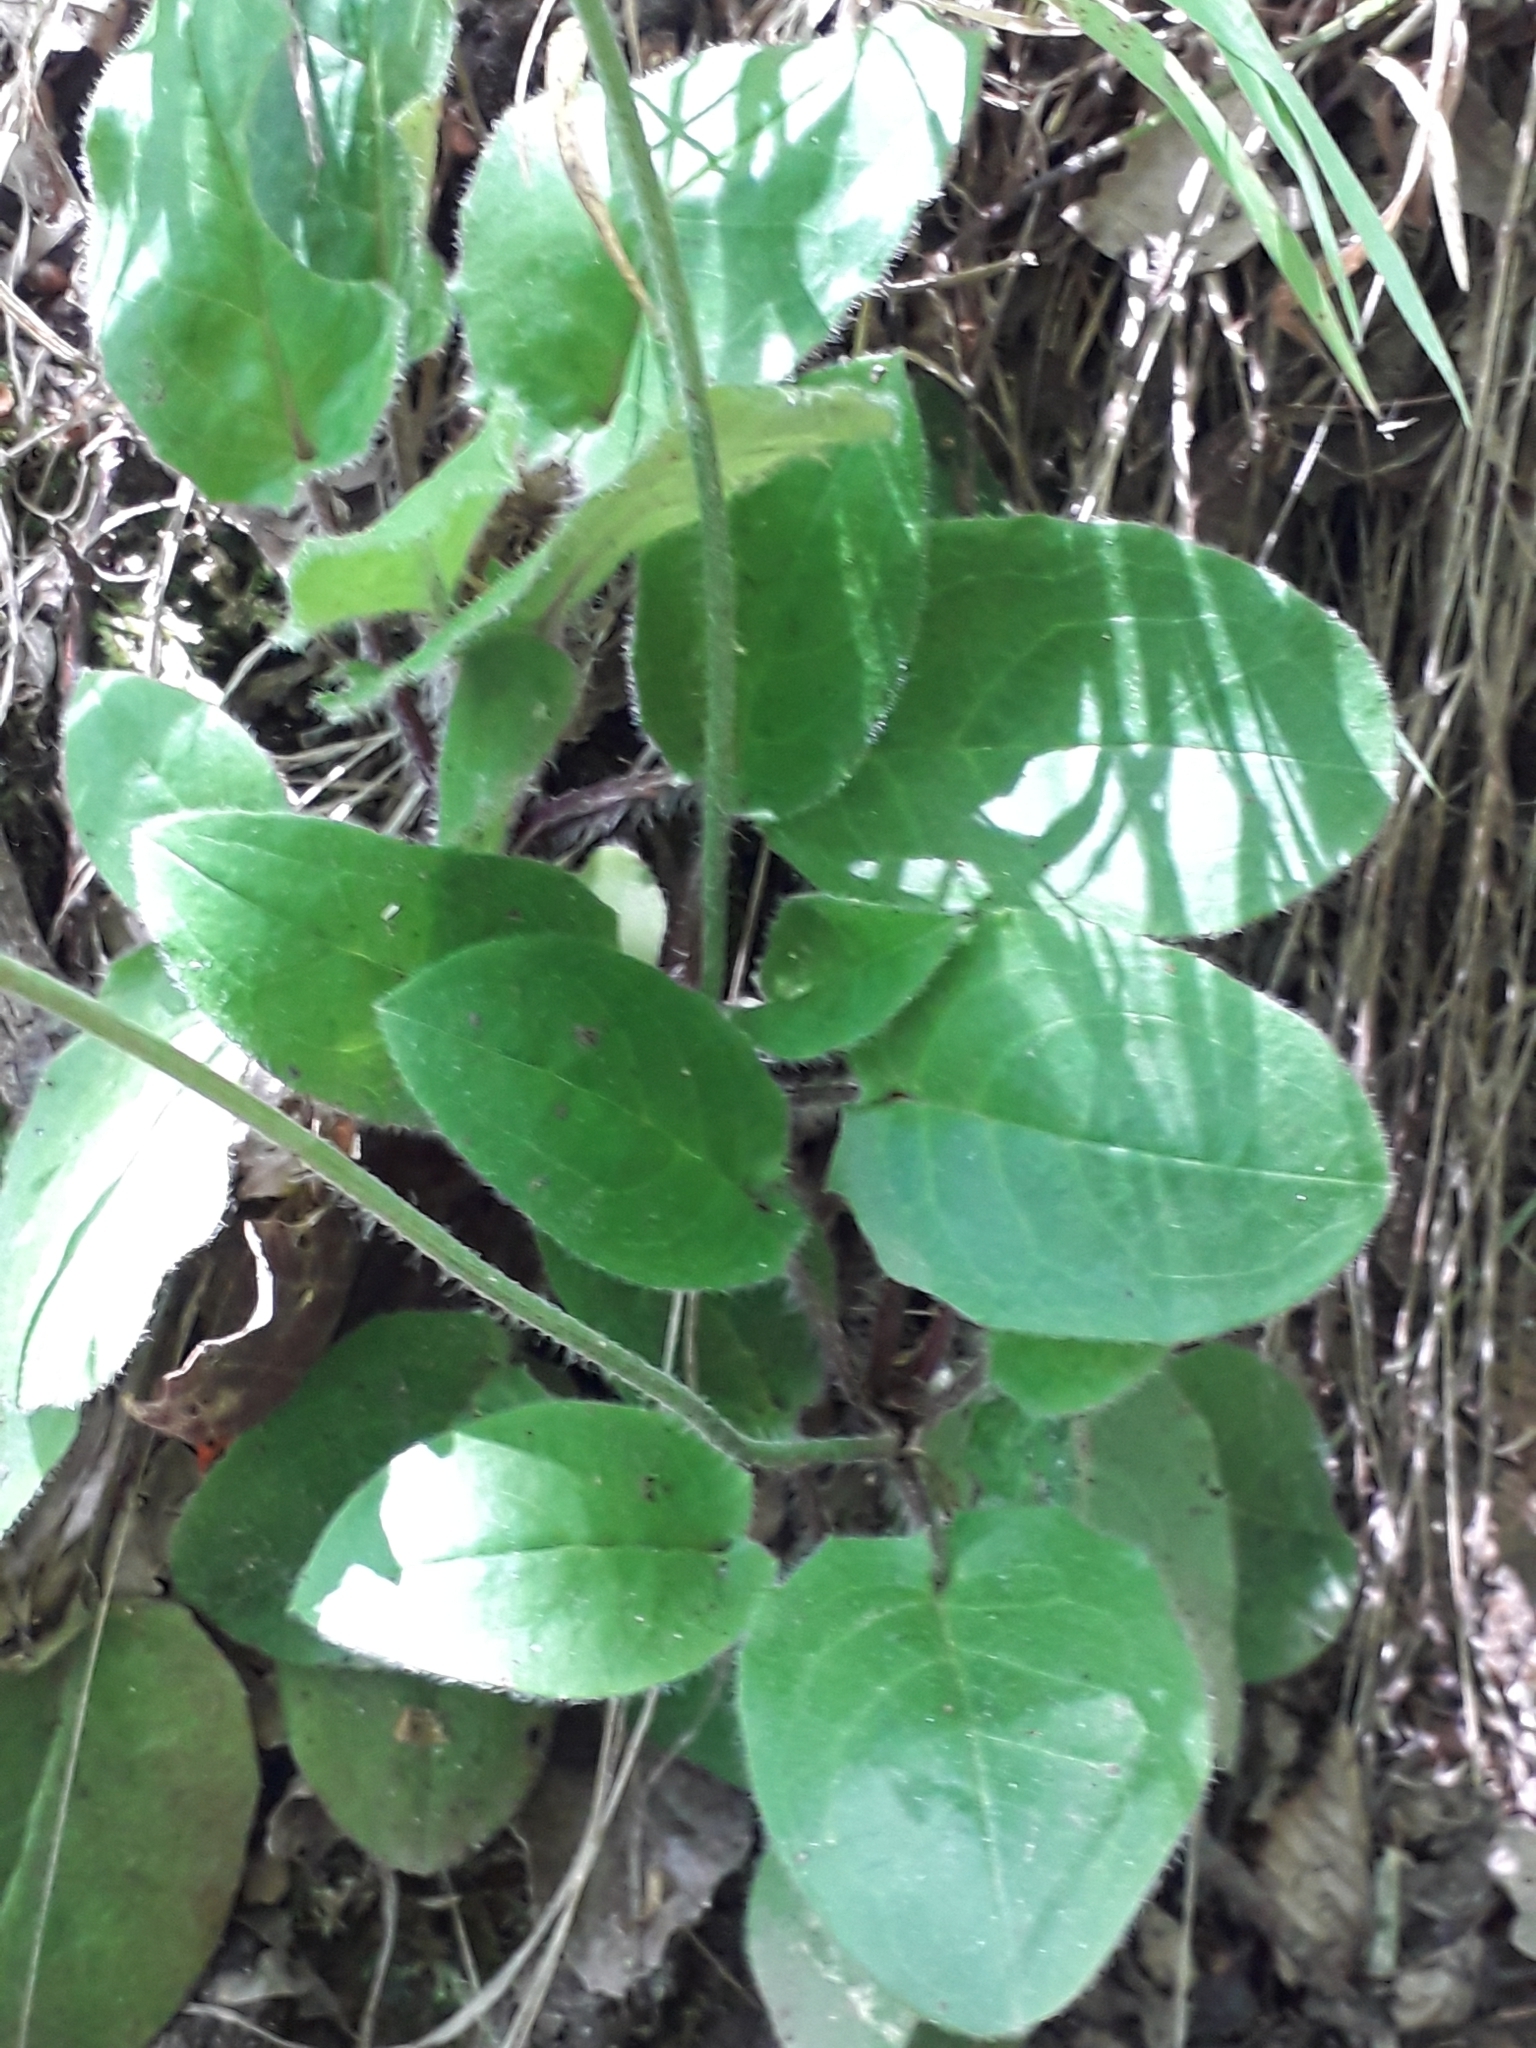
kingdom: Plantae
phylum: Tracheophyta
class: Magnoliopsida
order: Asterales
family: Asteraceae
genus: Hieracium
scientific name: Hieracium murorum
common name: Wall hawkweed
